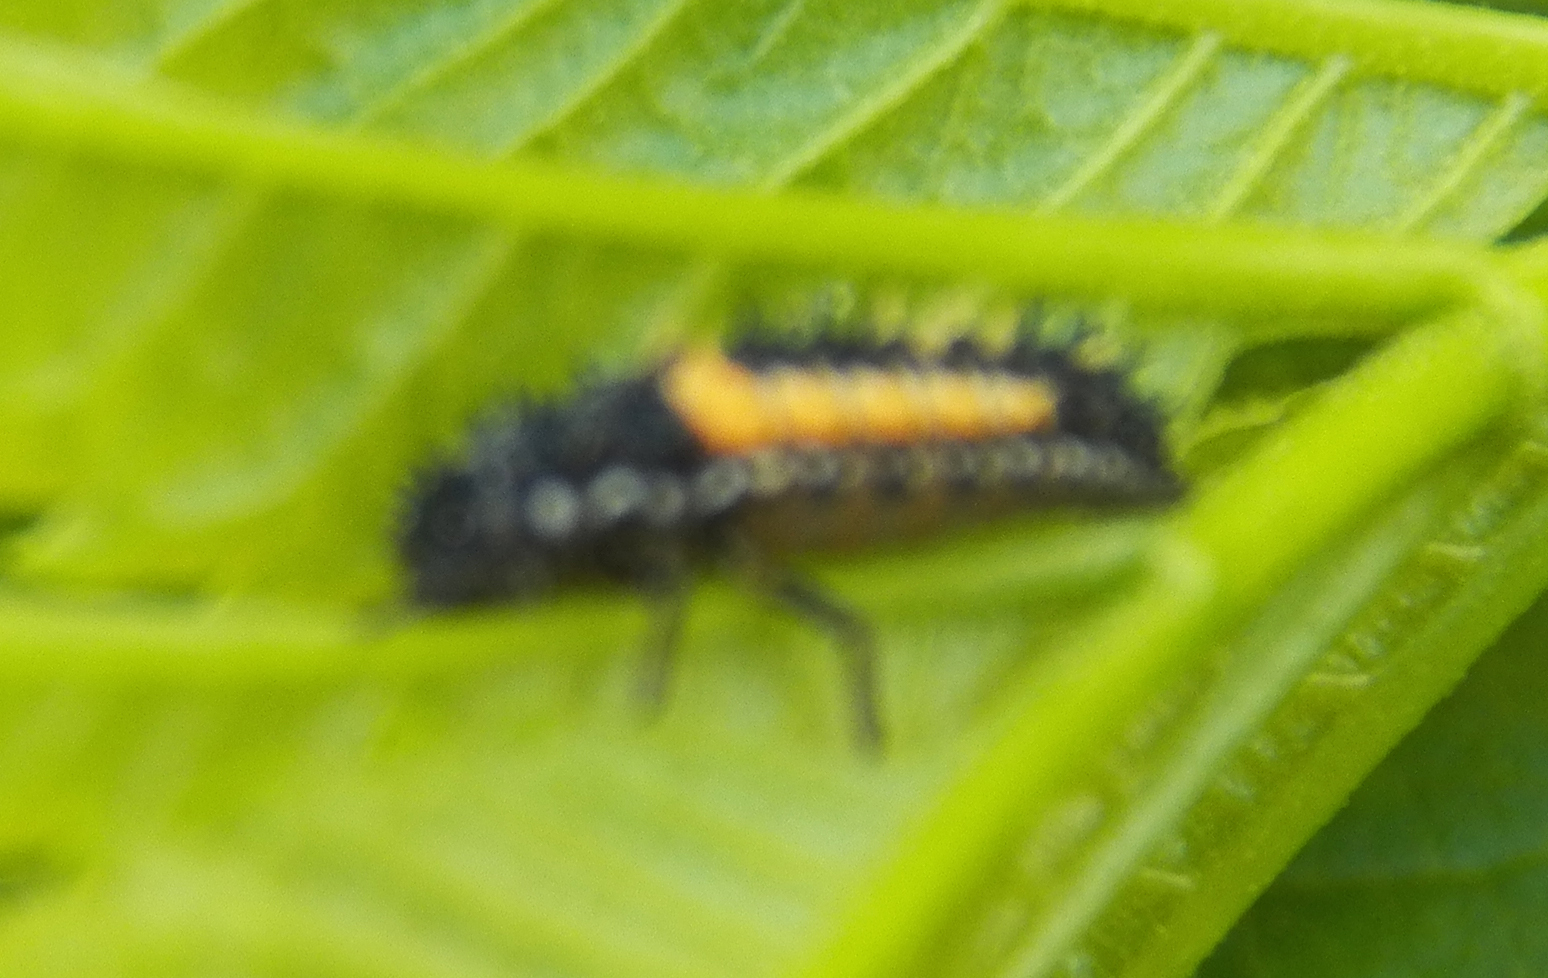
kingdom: Animalia
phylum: Arthropoda
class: Insecta
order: Coleoptera
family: Coccinellidae
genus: Harmonia
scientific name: Harmonia axyridis
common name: Harlequin ladybird
